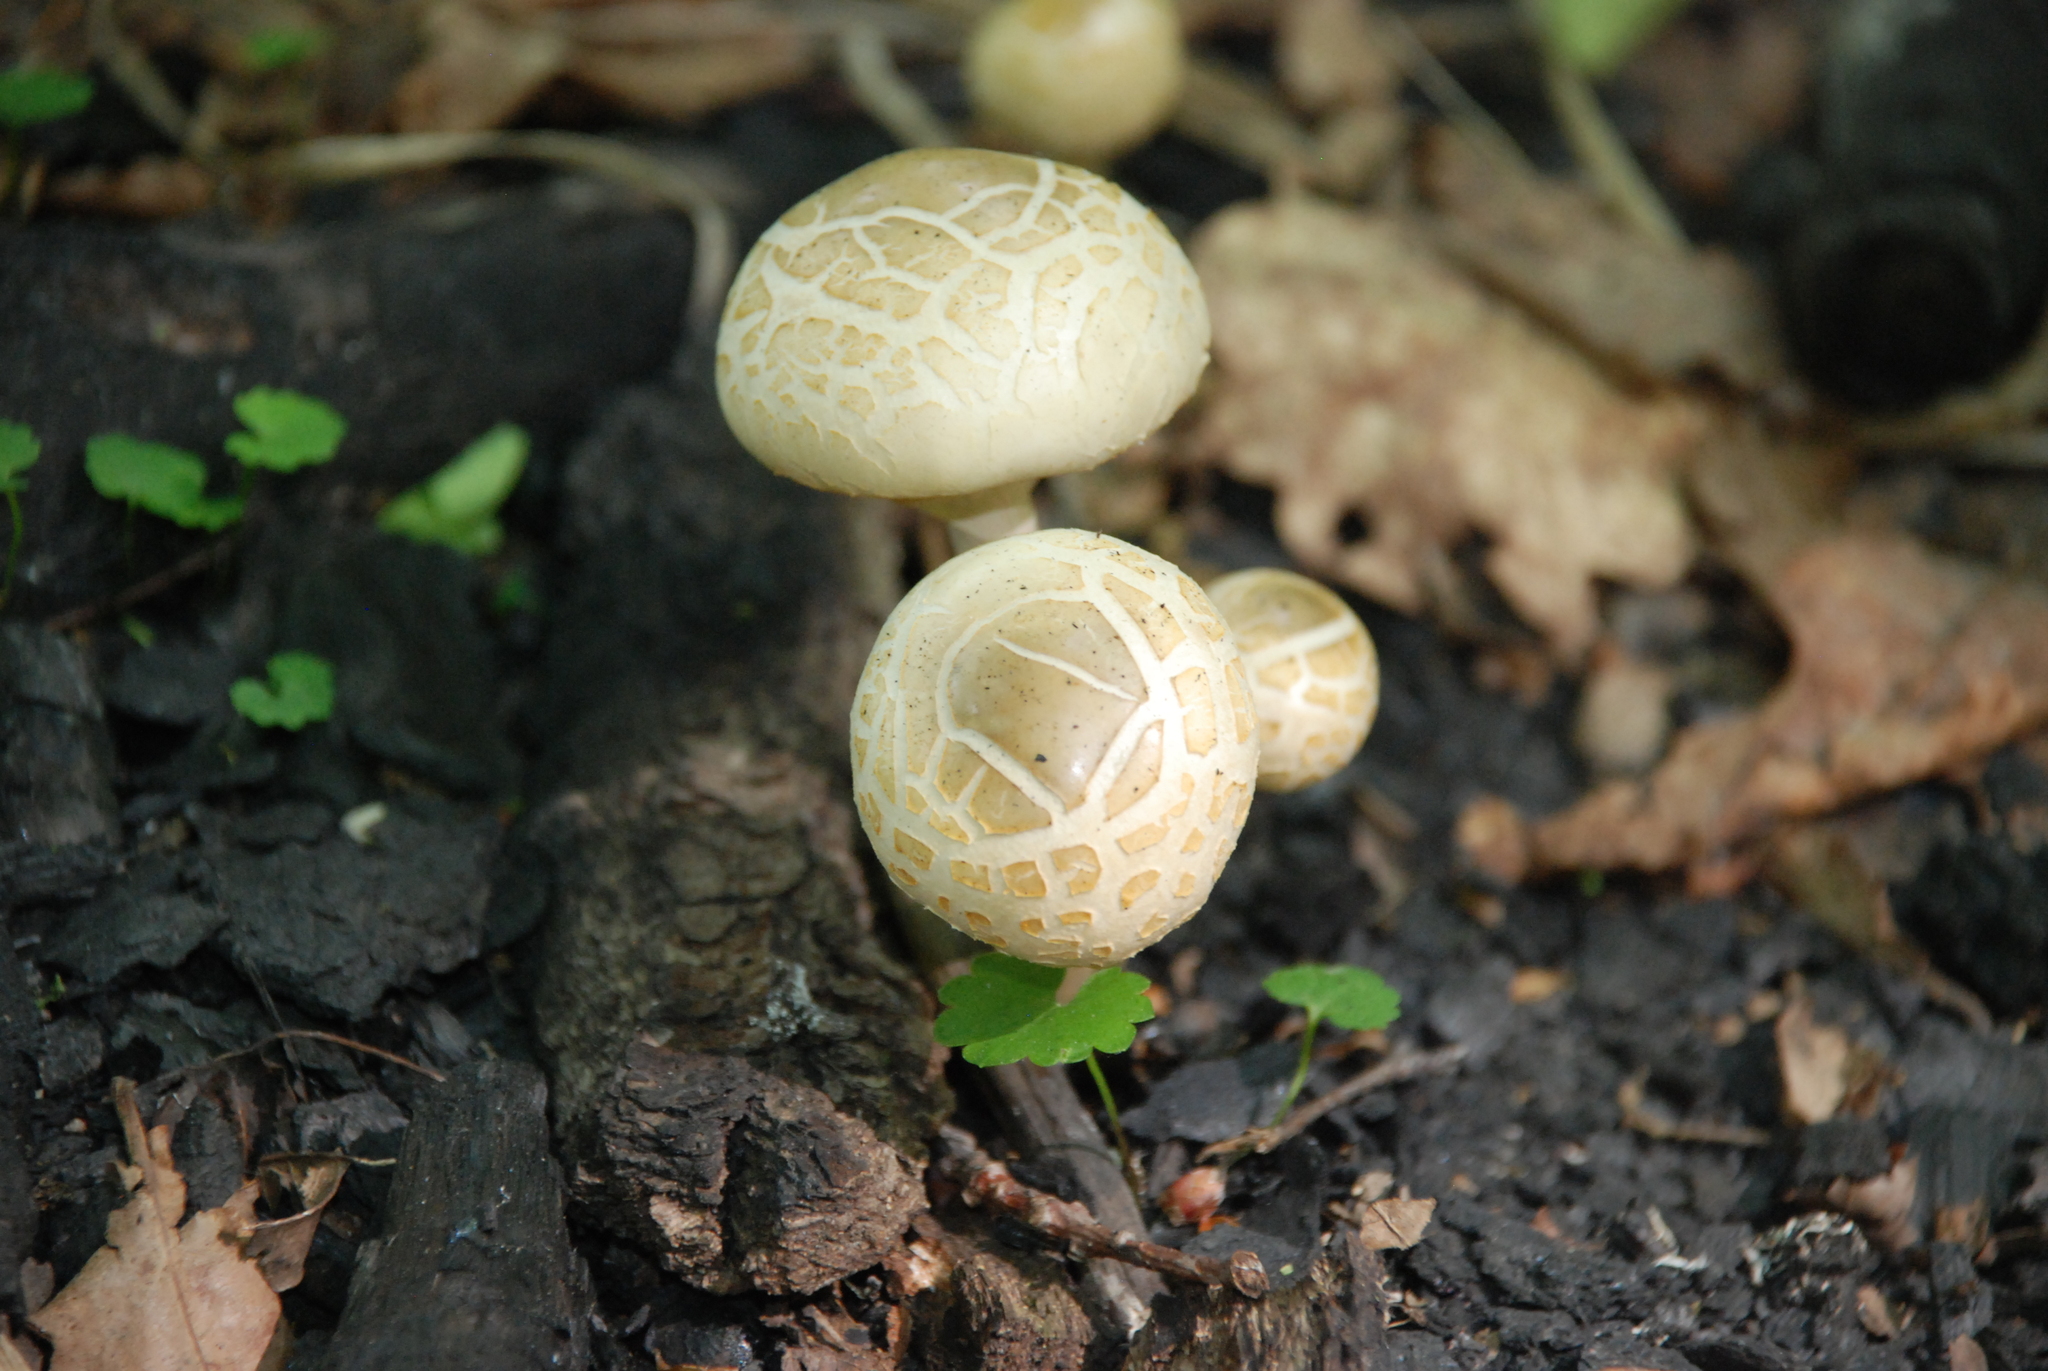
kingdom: Fungi
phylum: Basidiomycota
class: Agaricomycetes
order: Agaricales
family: Strophariaceae
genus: Agrocybe
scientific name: Agrocybe praecox
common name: Spring fieldcap
